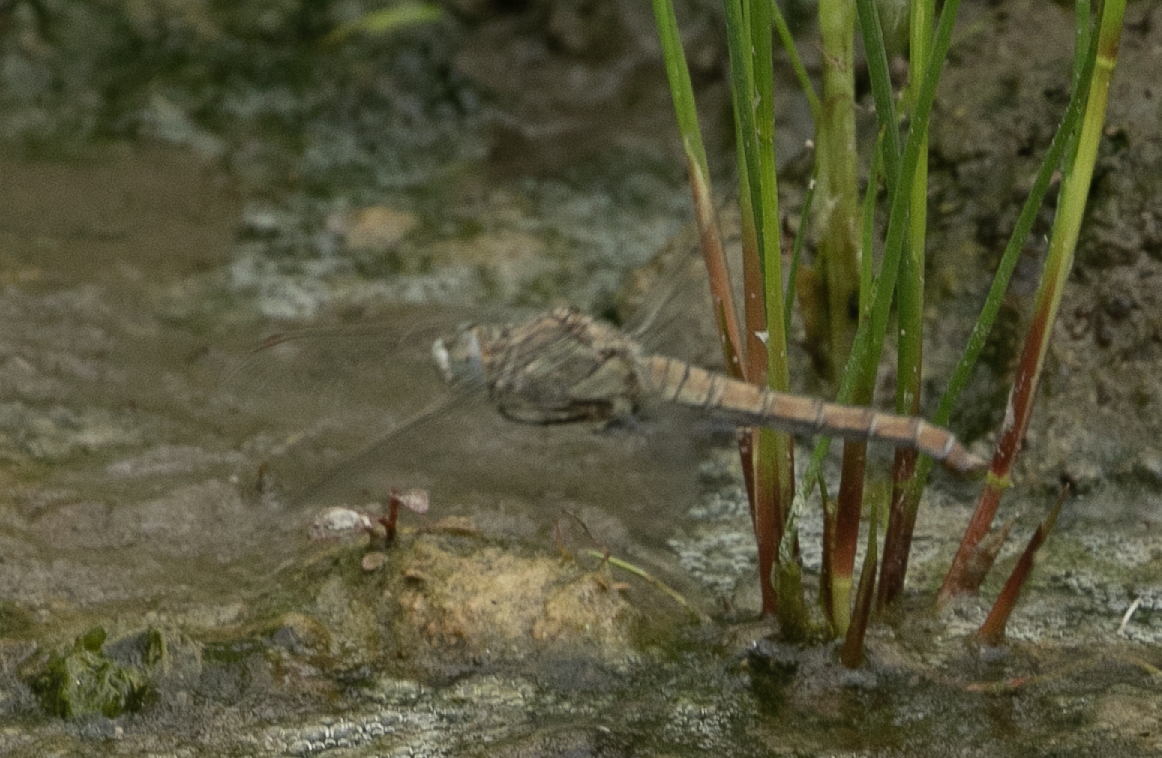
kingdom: Animalia
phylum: Arthropoda
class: Insecta
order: Odonata
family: Libellulidae
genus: Orthetrum
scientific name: Orthetrum brunneum
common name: Southern skimmer
